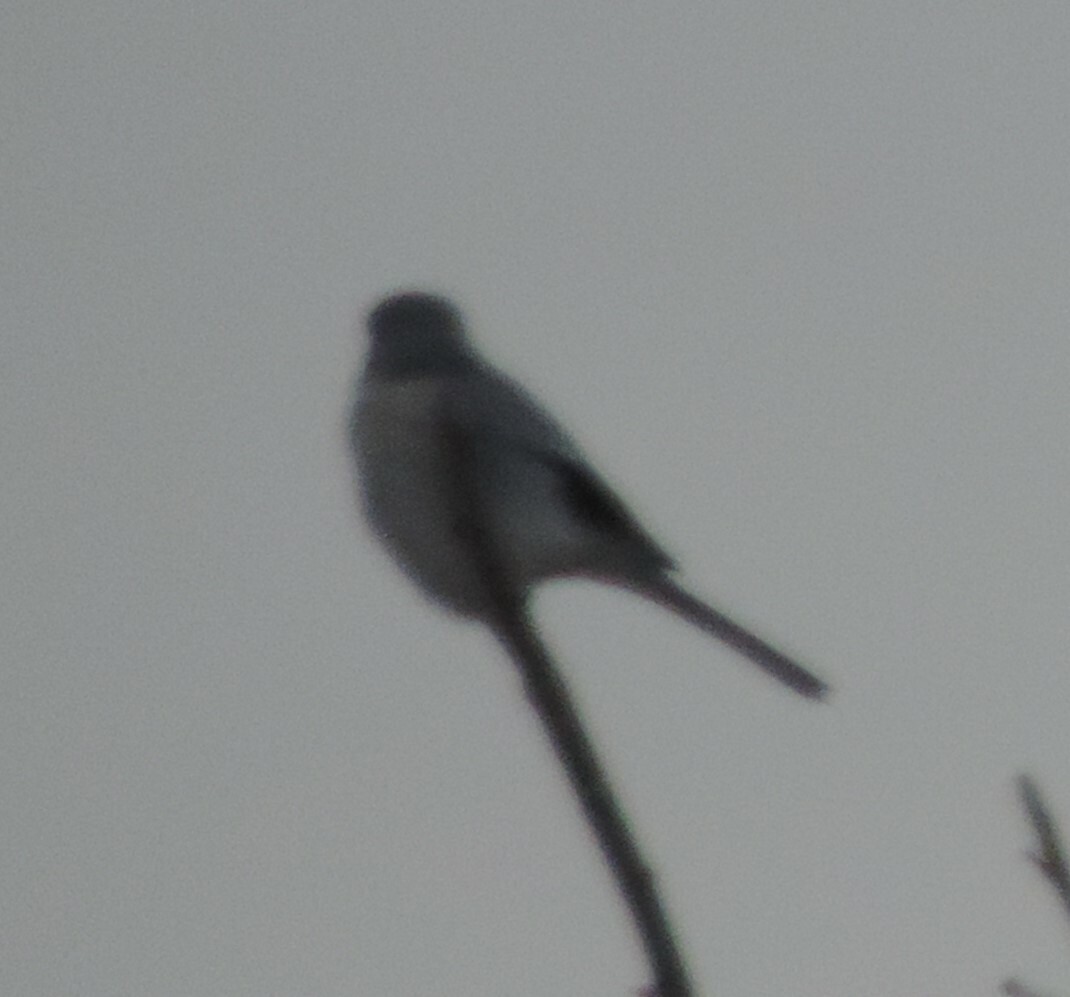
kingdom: Animalia
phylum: Chordata
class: Aves
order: Passeriformes
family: Laniidae
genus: Lanius
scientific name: Lanius borealis
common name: Northern shrike
